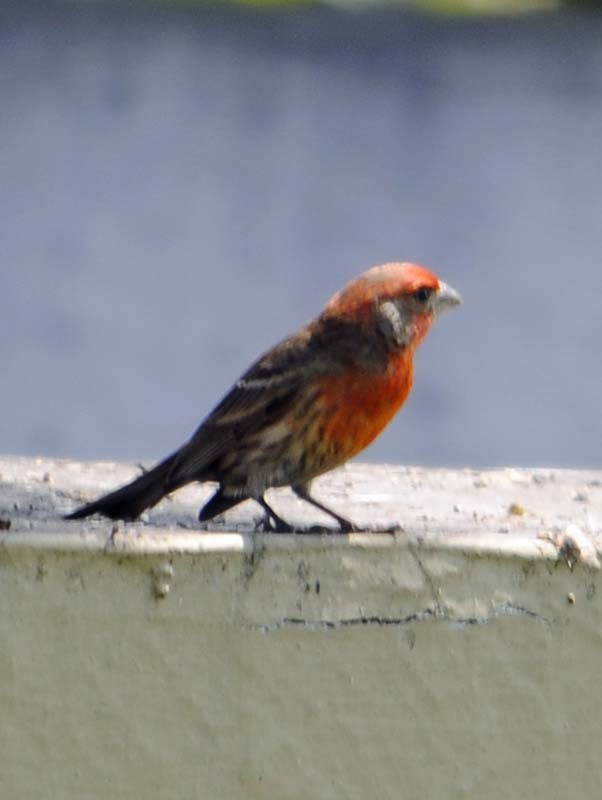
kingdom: Animalia
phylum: Chordata
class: Aves
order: Passeriformes
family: Fringillidae
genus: Haemorhous
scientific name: Haemorhous mexicanus
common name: House finch
